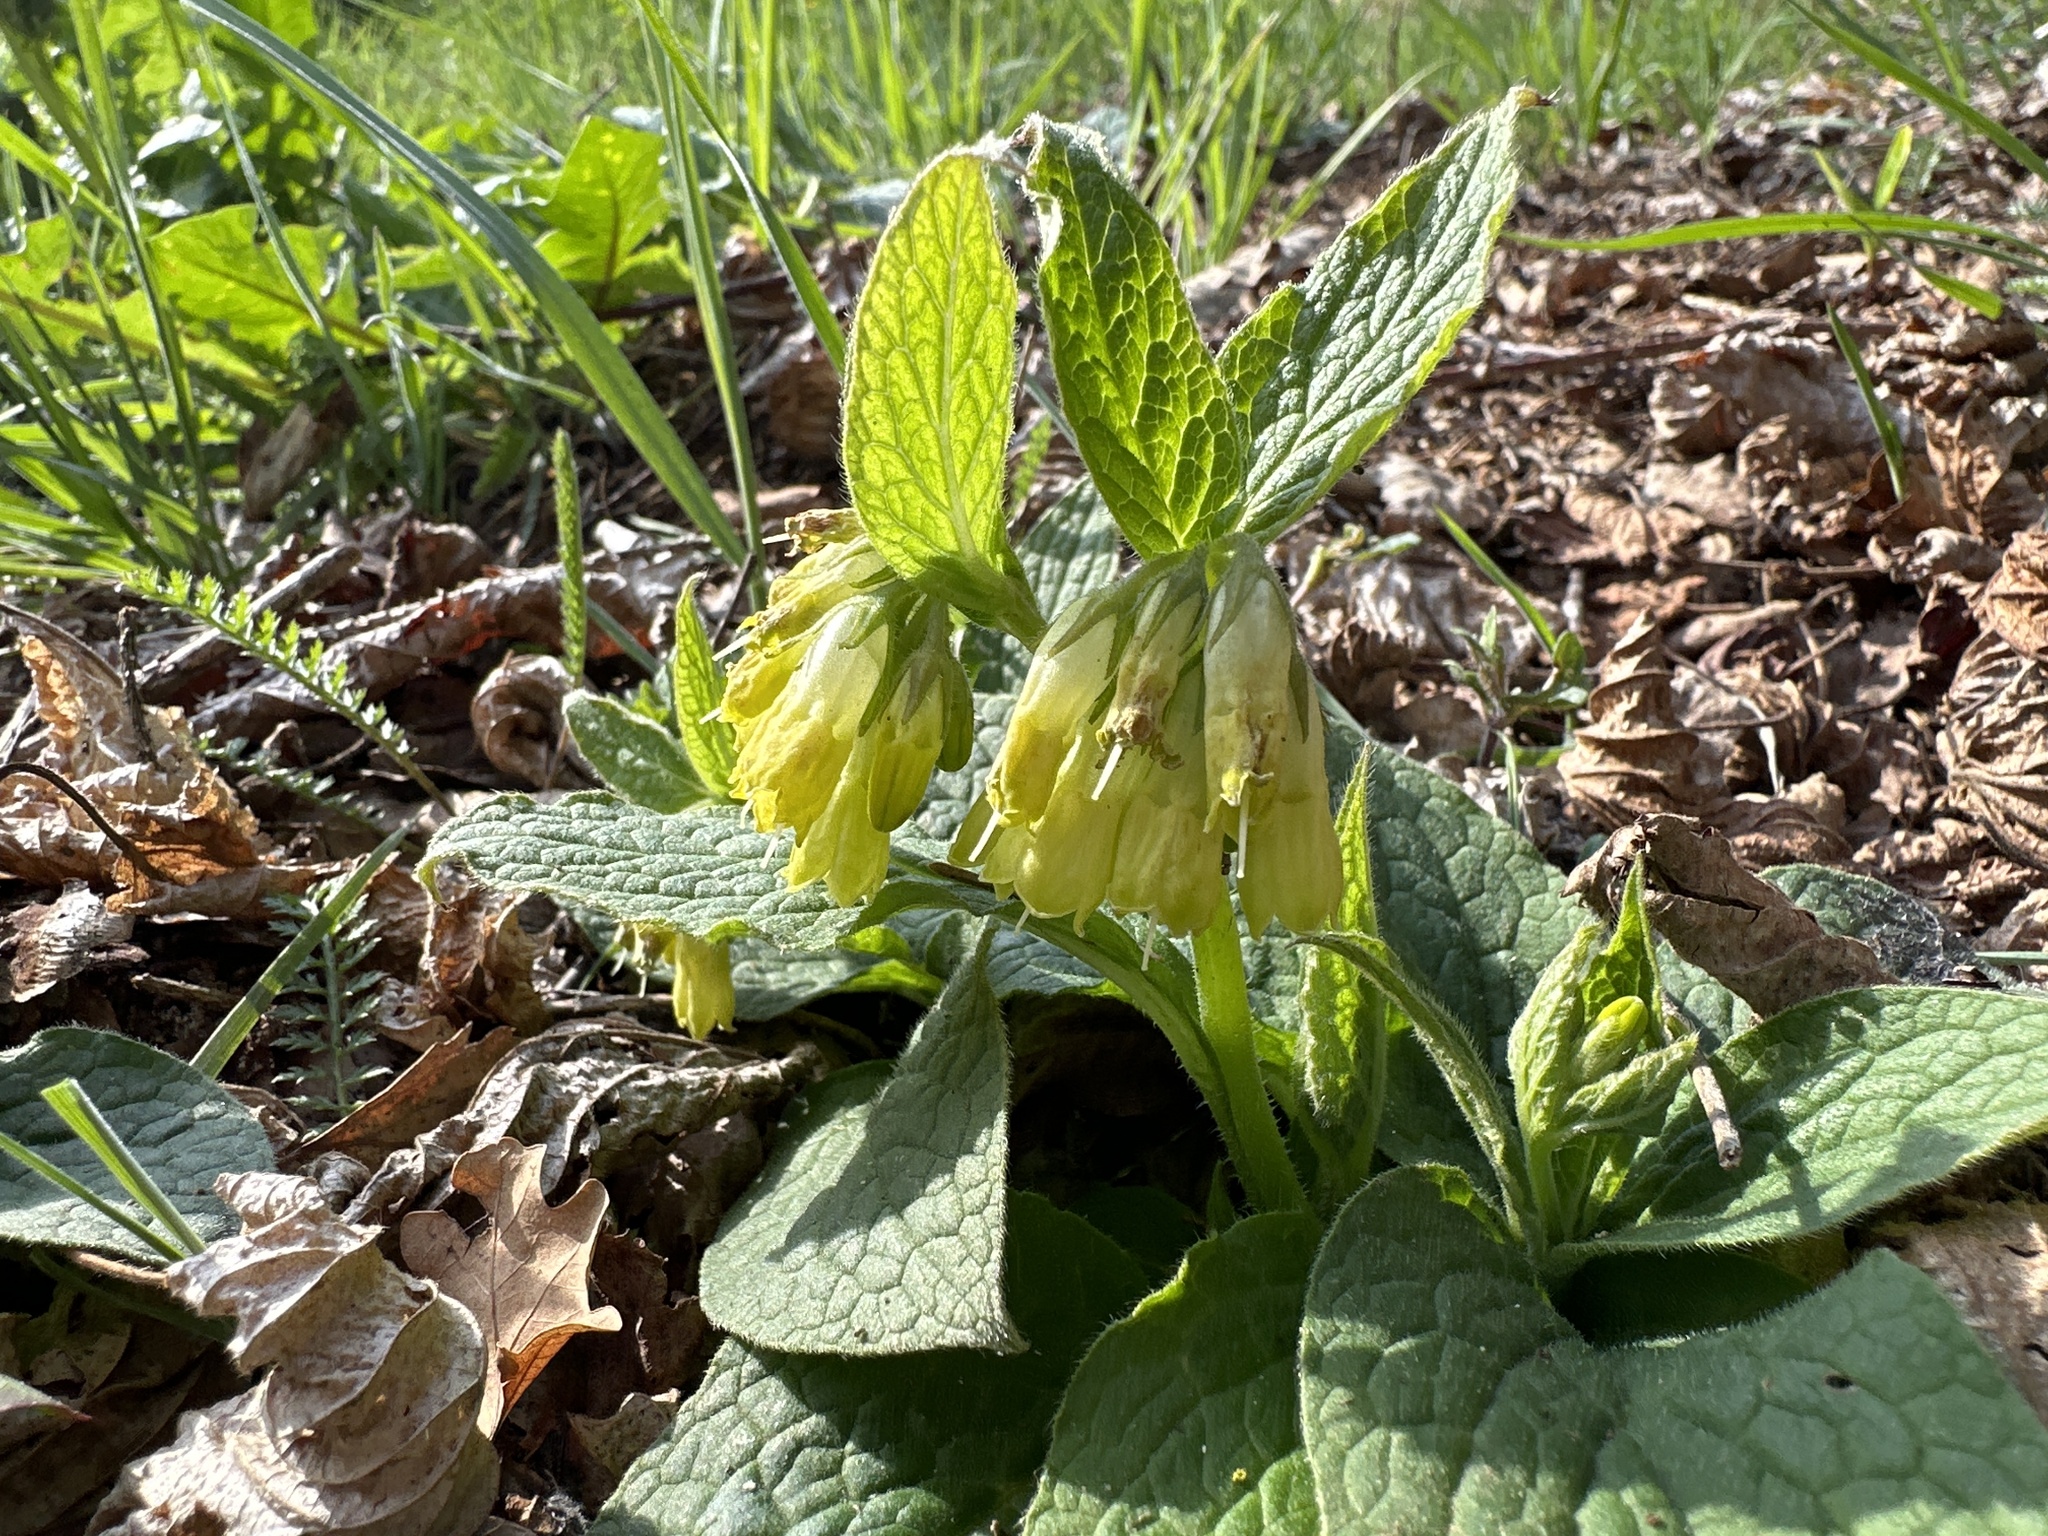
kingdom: Plantae
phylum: Tracheophyta
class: Magnoliopsida
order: Boraginales
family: Boraginaceae
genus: Symphytum
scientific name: Symphytum tuberosum
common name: Tuberous comfrey
